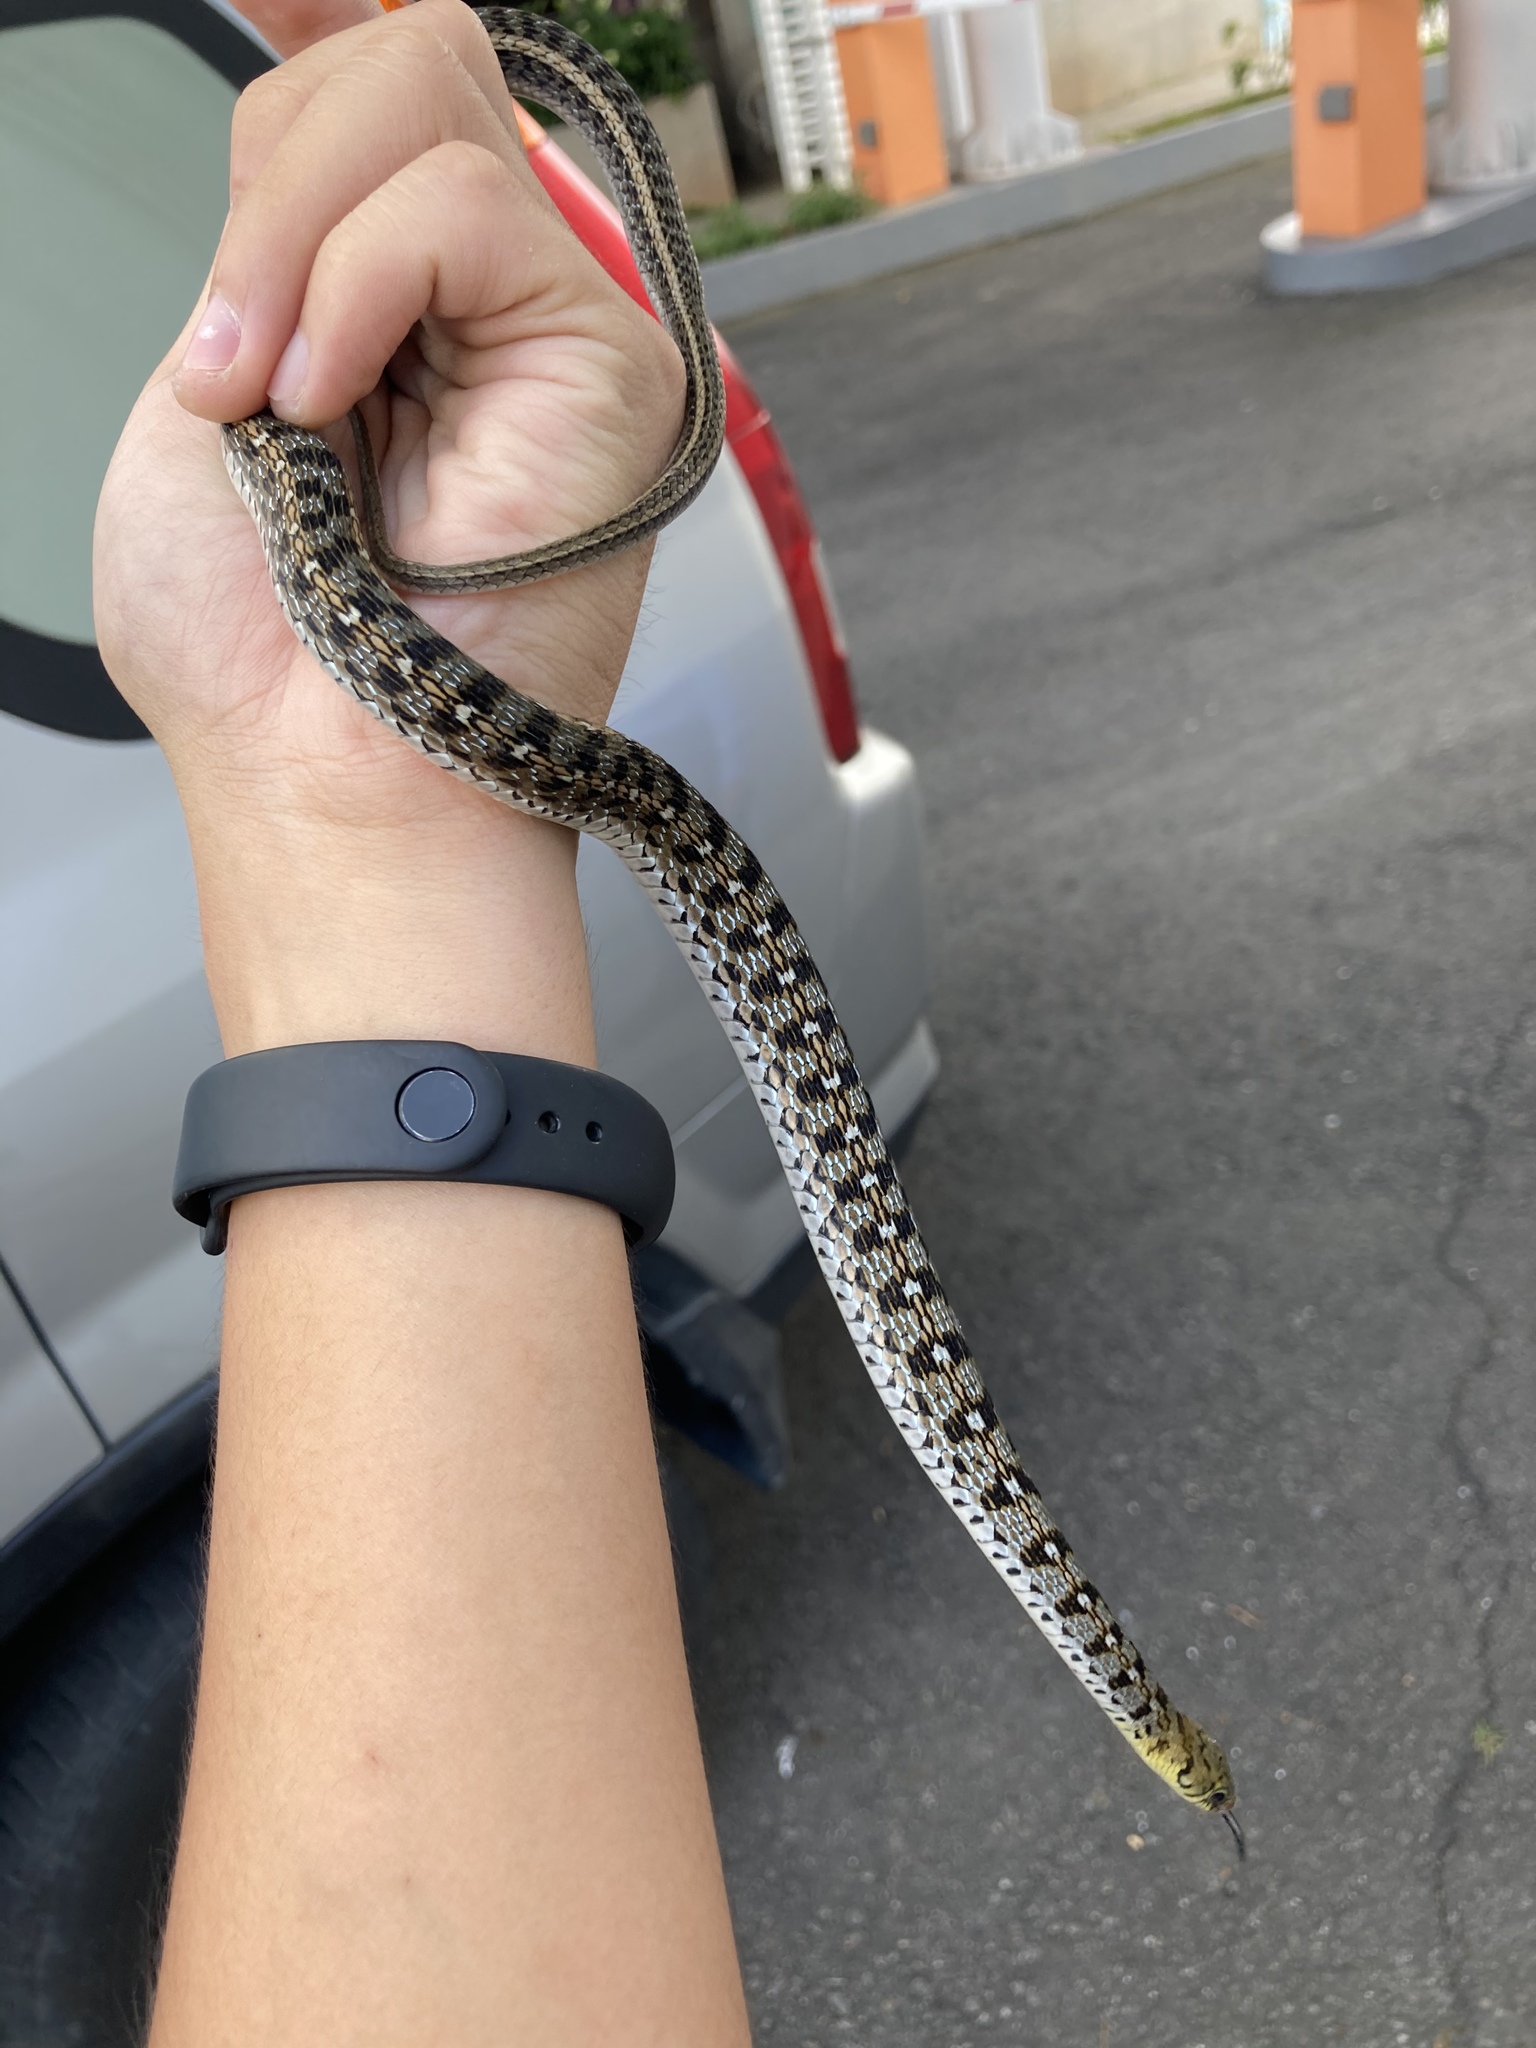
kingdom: Animalia
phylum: Chordata
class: Squamata
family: Colubridae
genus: Amphiesma
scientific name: Amphiesma stolatum
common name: Buff striped keelback
